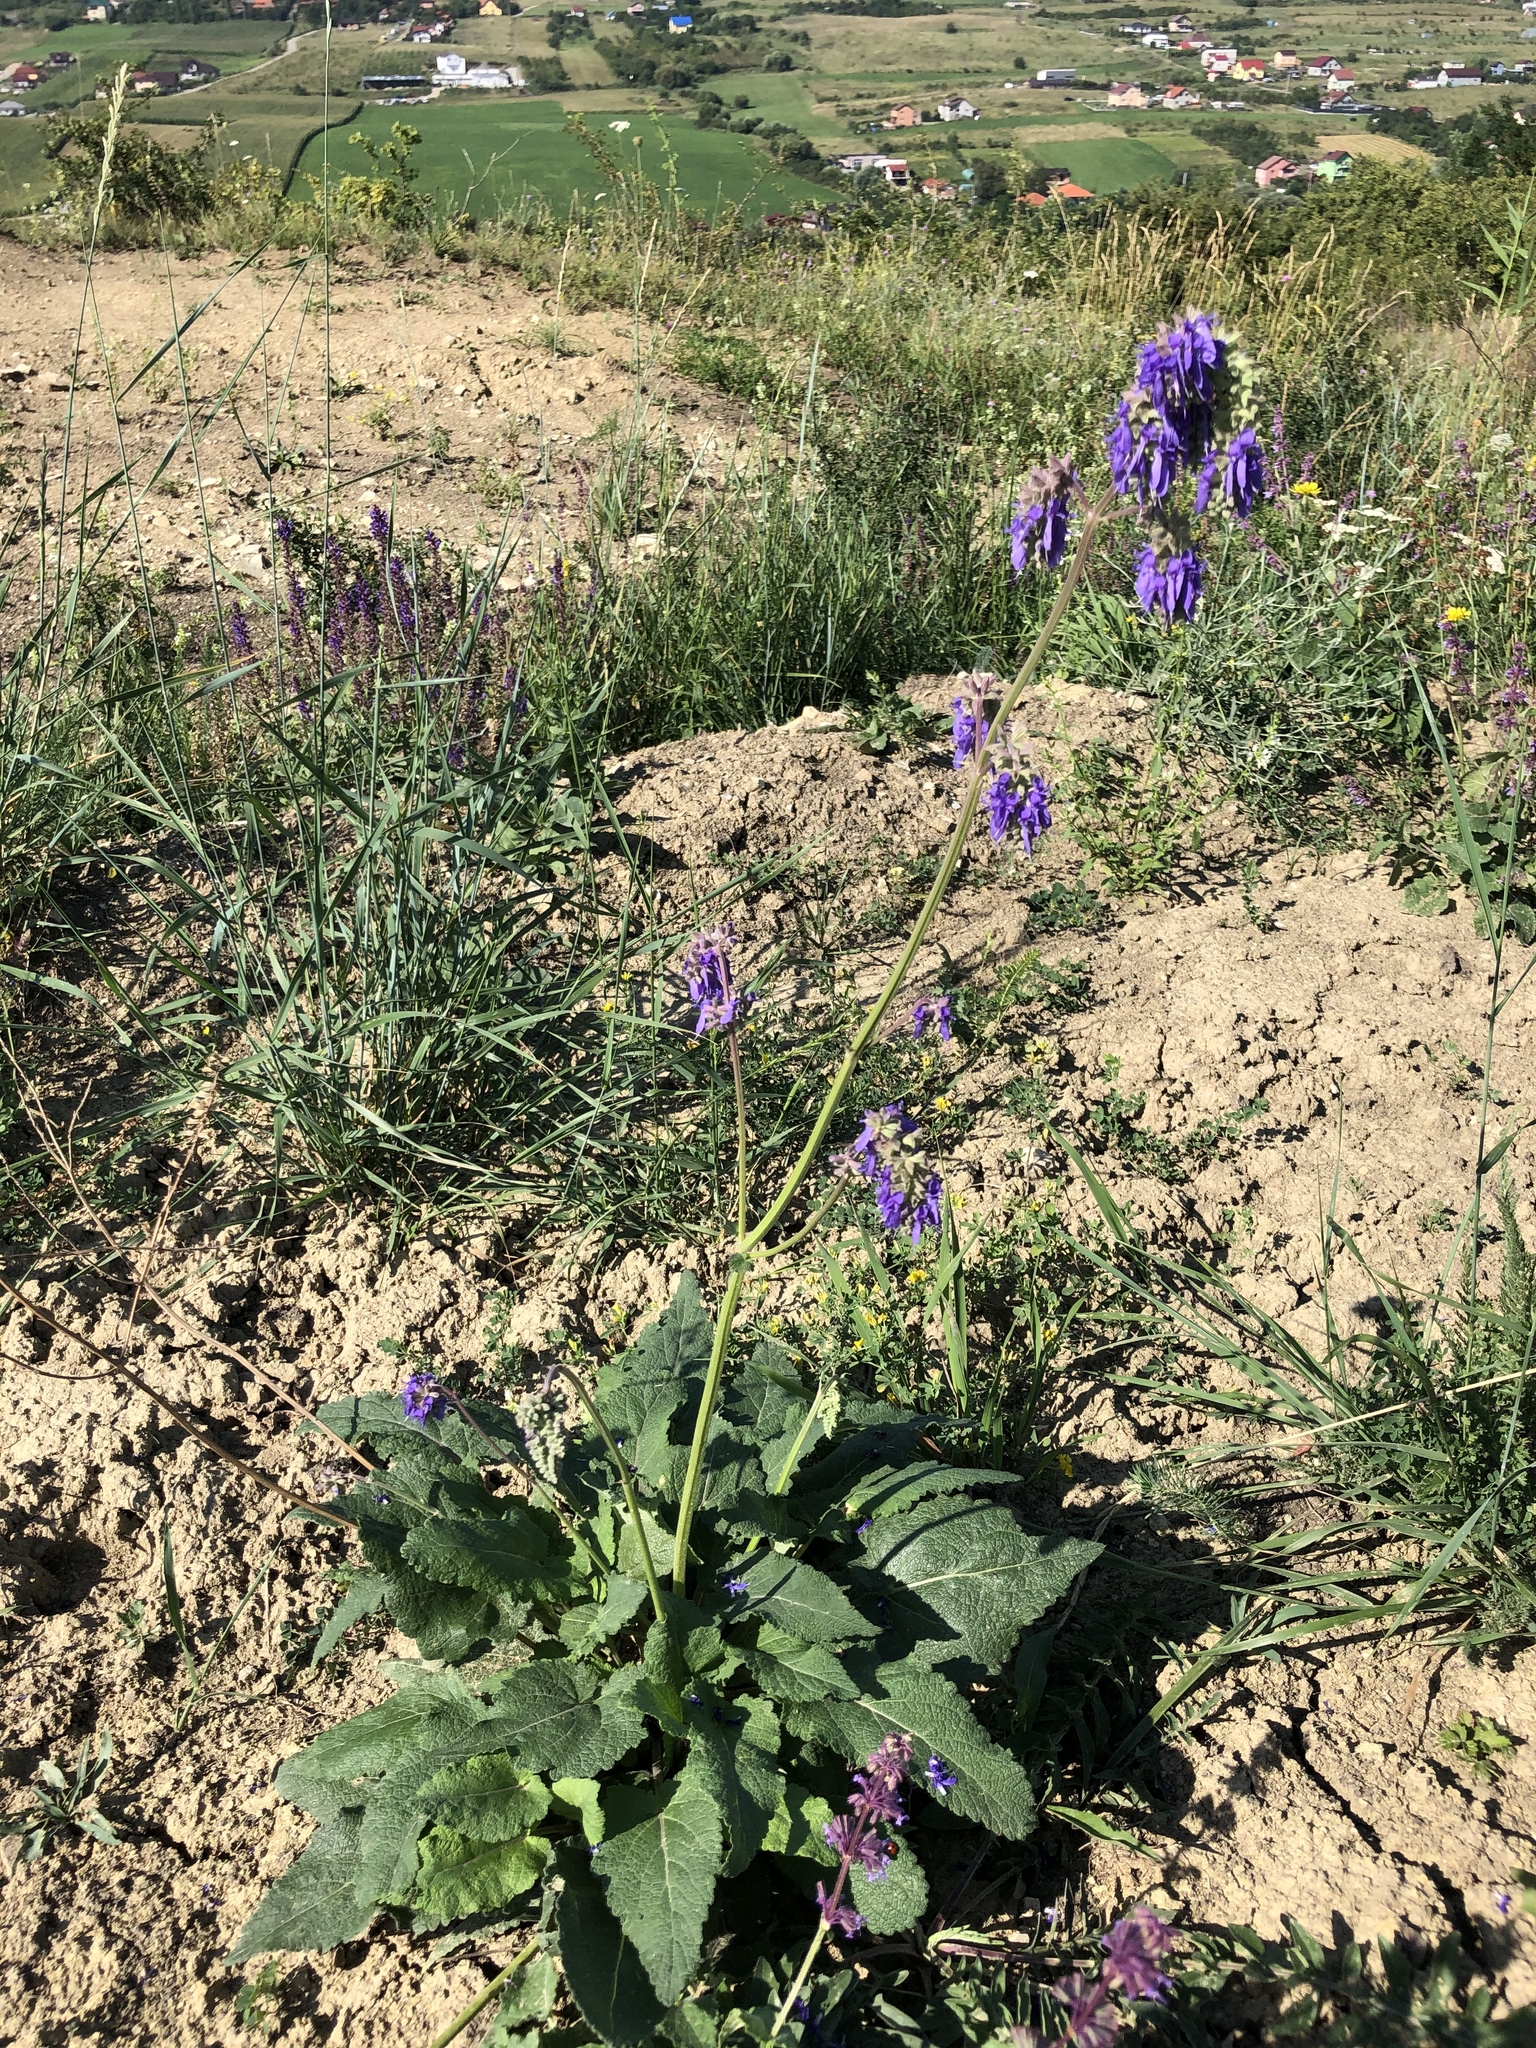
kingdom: Plantae
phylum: Tracheophyta
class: Magnoliopsida
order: Lamiales
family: Lamiaceae
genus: Salvia
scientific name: Salvia nutans
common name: Nodding sage
